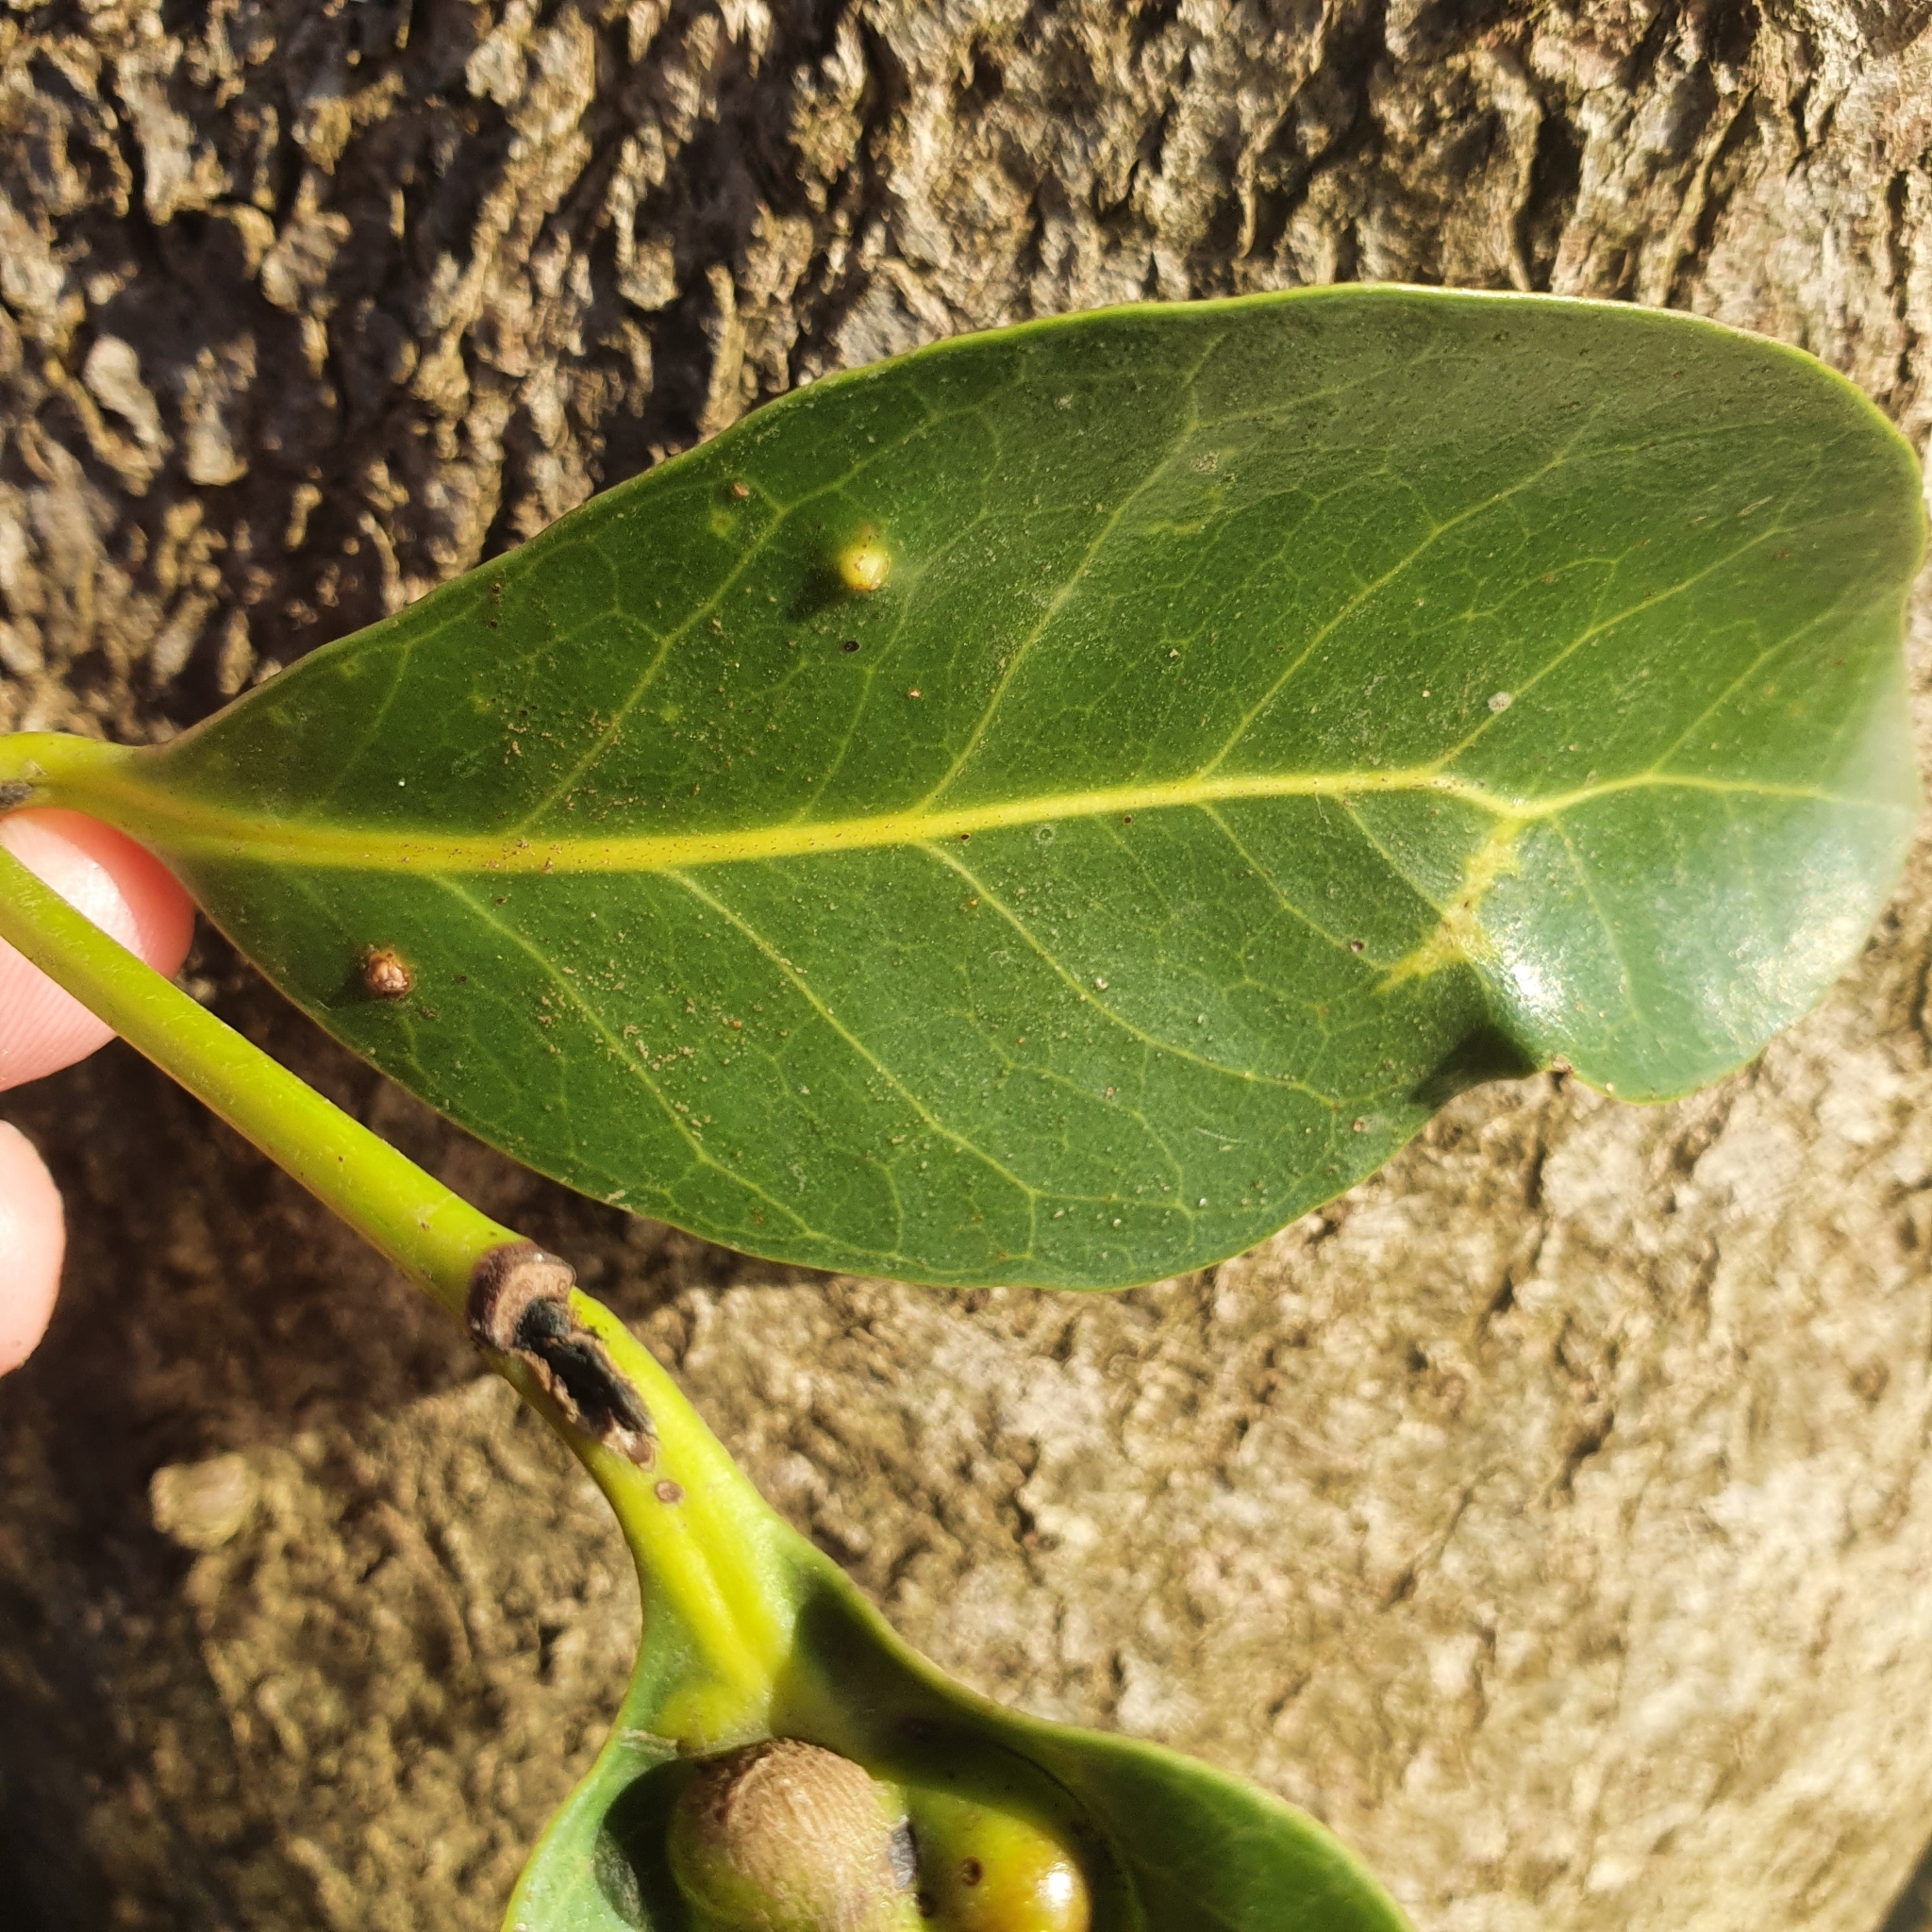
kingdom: Plantae
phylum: Tracheophyta
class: Magnoliopsida
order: Lamiales
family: Acanthaceae
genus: Avicennia
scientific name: Avicennia marina
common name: Gray mangrove
